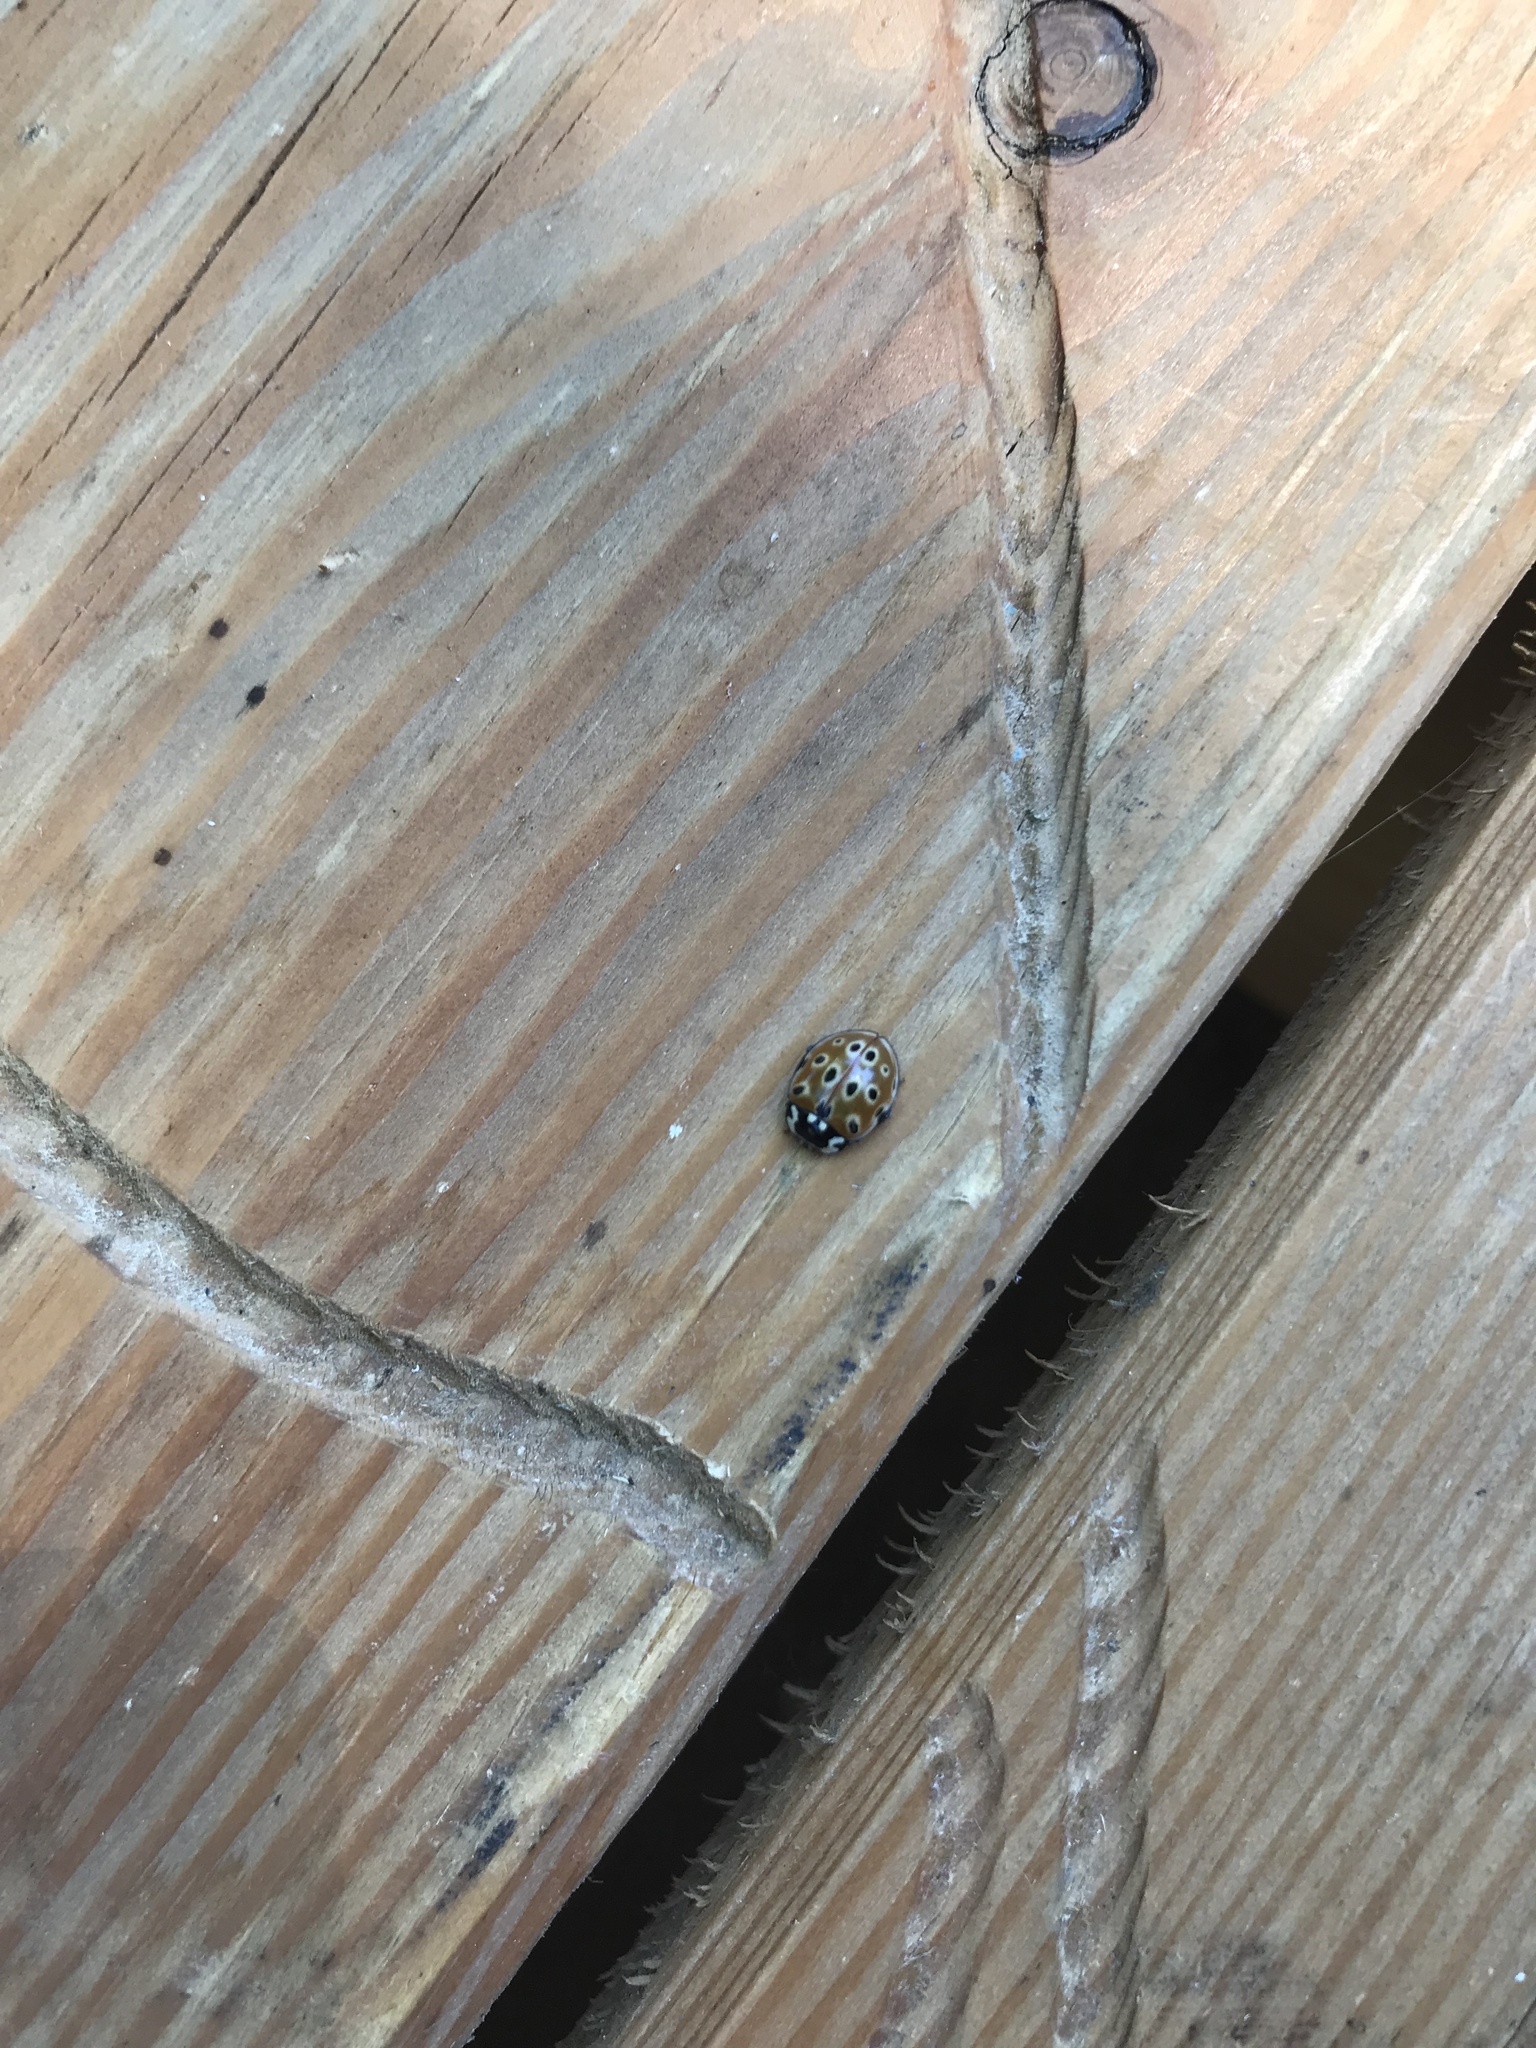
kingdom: Animalia
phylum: Arthropoda
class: Insecta
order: Coleoptera
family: Coccinellidae
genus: Anatis
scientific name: Anatis ocellata
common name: Eyed ladybird
